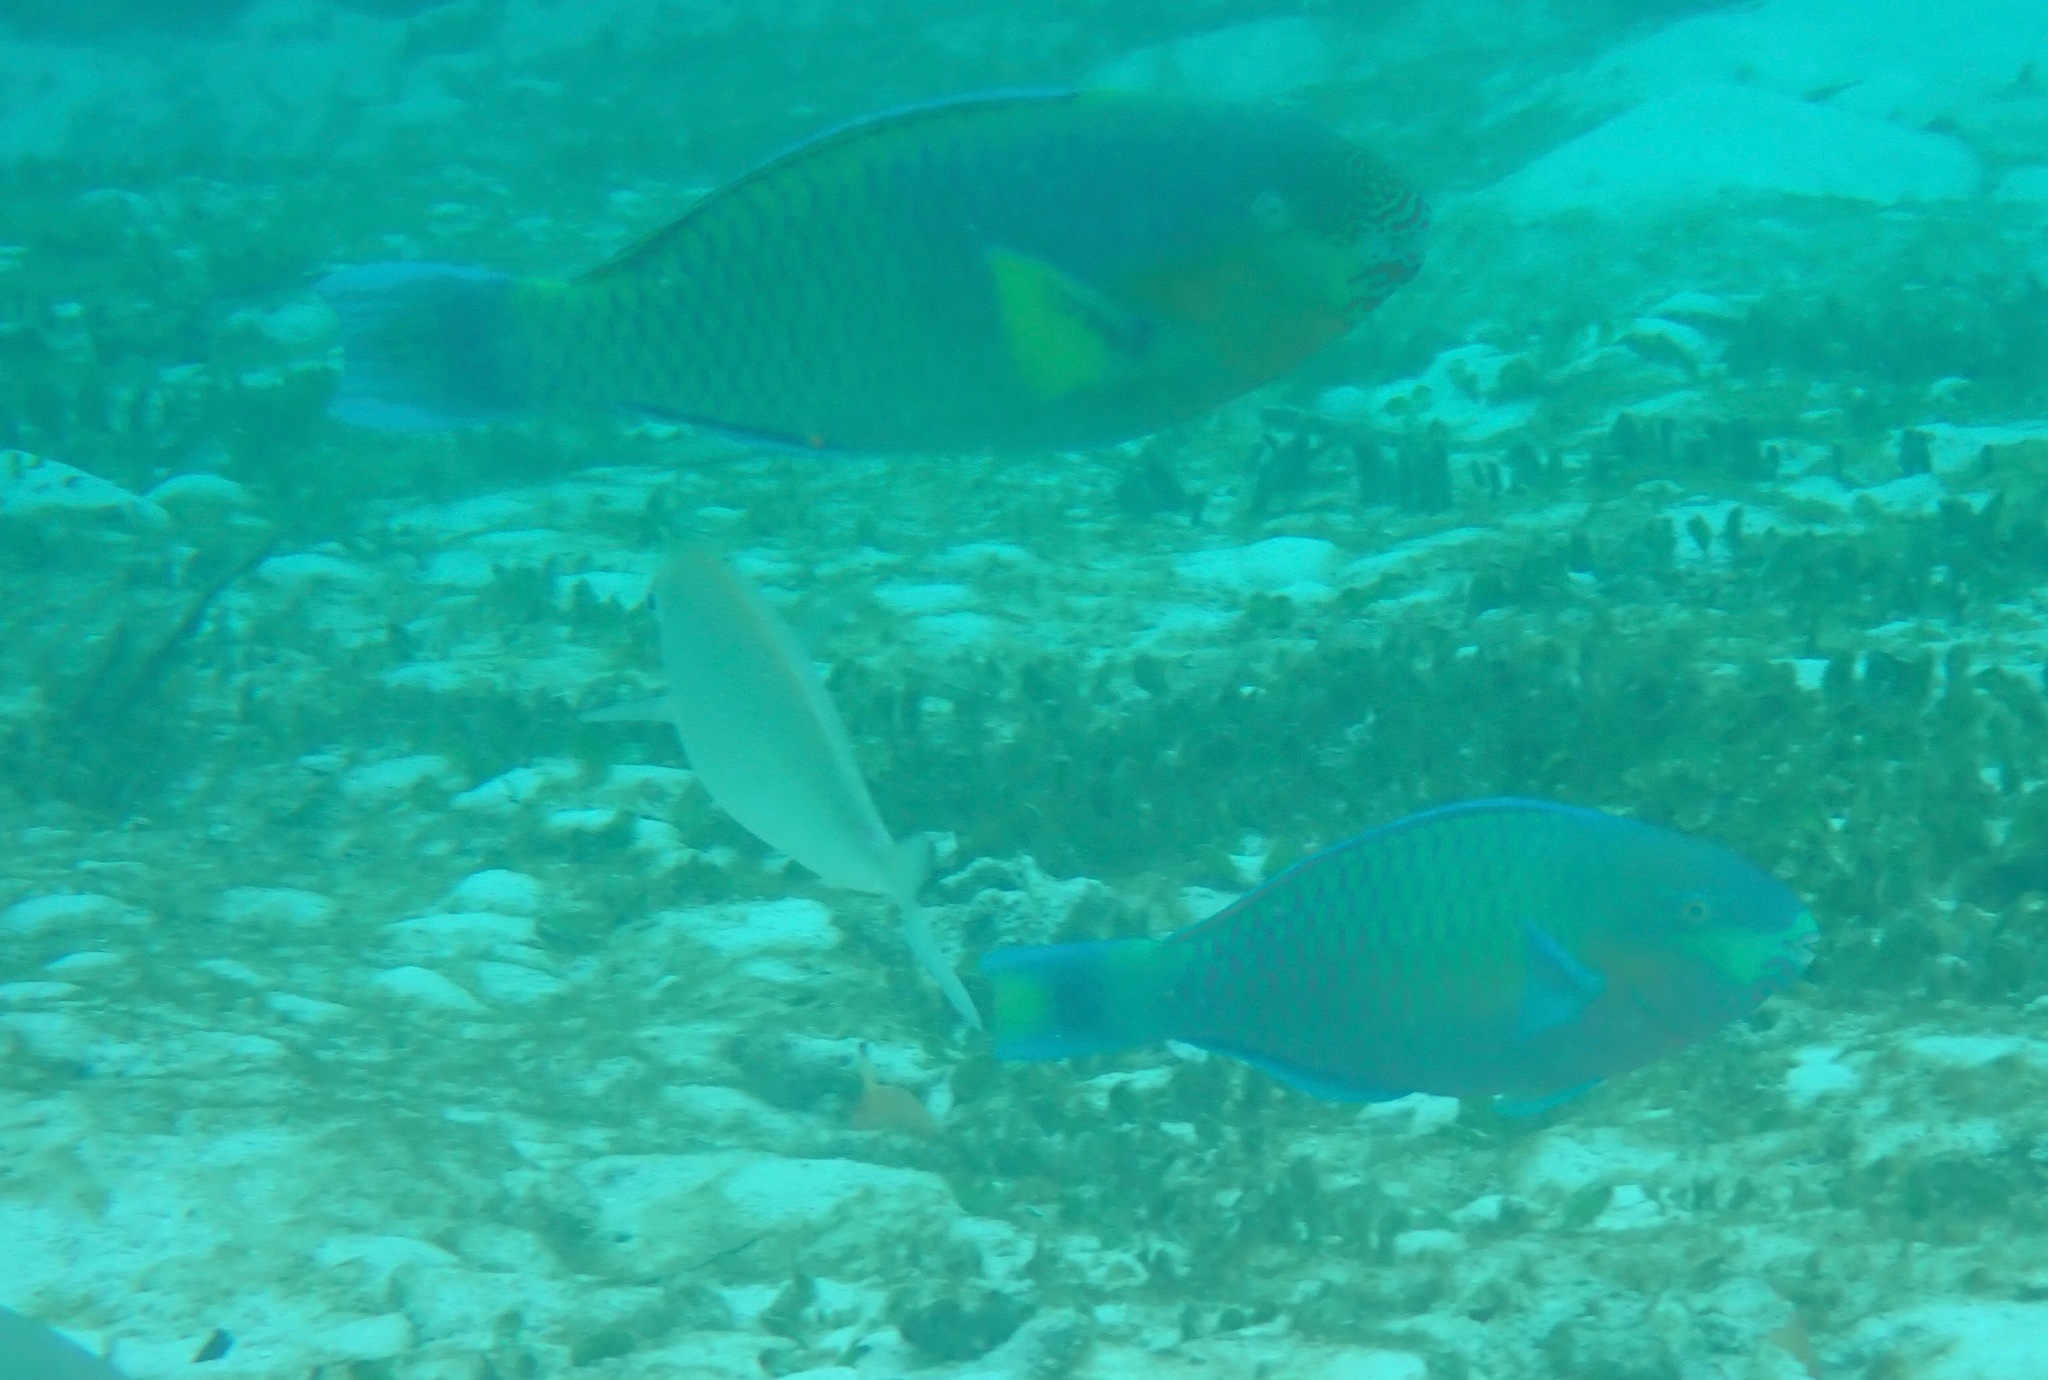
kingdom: Animalia
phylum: Chordata
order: Perciformes
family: Scaridae
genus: Scarus
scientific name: Scarus rivulatus
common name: Surf parrotfish
